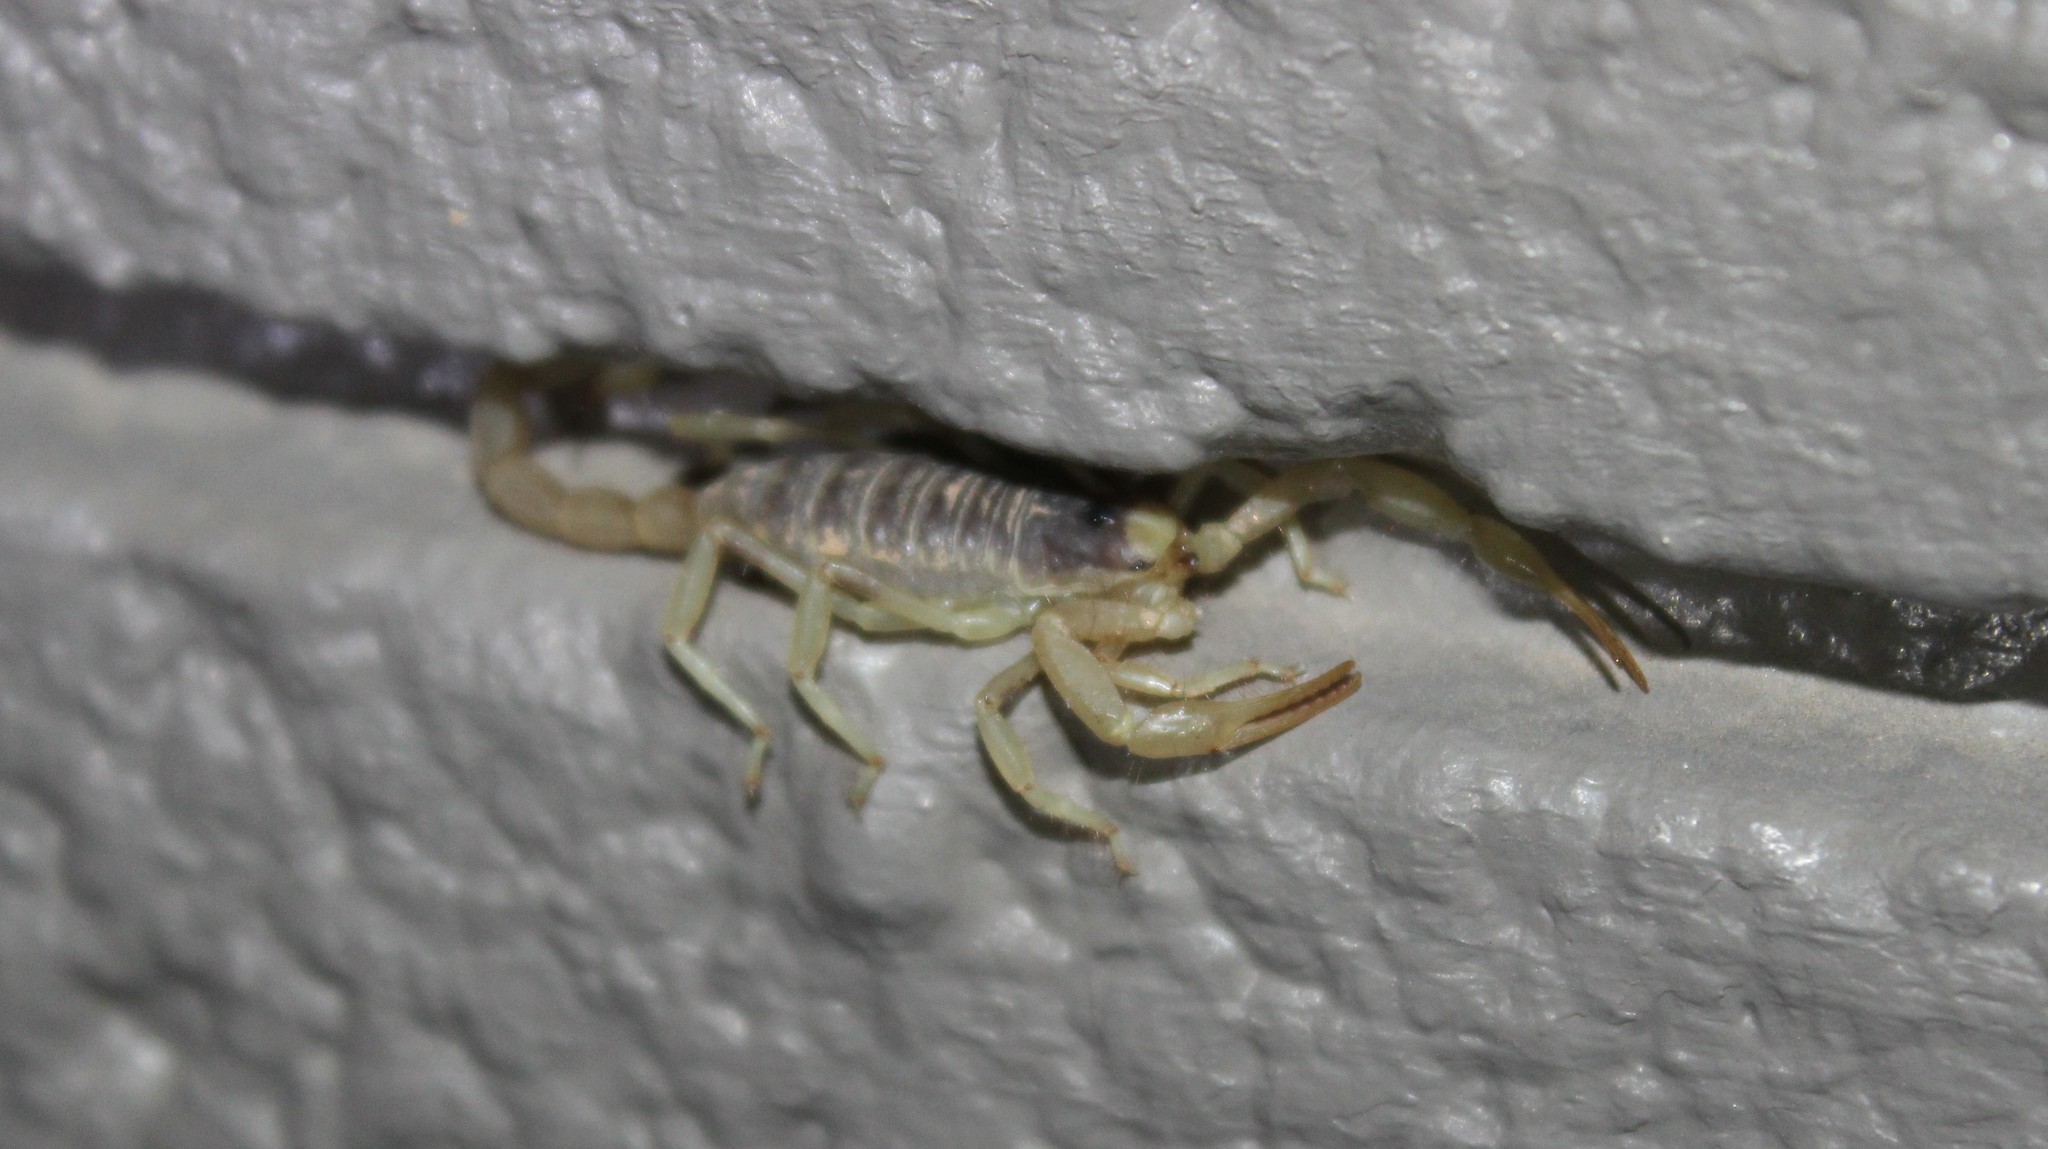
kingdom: Animalia
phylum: Arthropoda
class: Arachnida
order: Scorpiones
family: Hadruridae
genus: Hadrurus
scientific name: Hadrurus arizonensis
